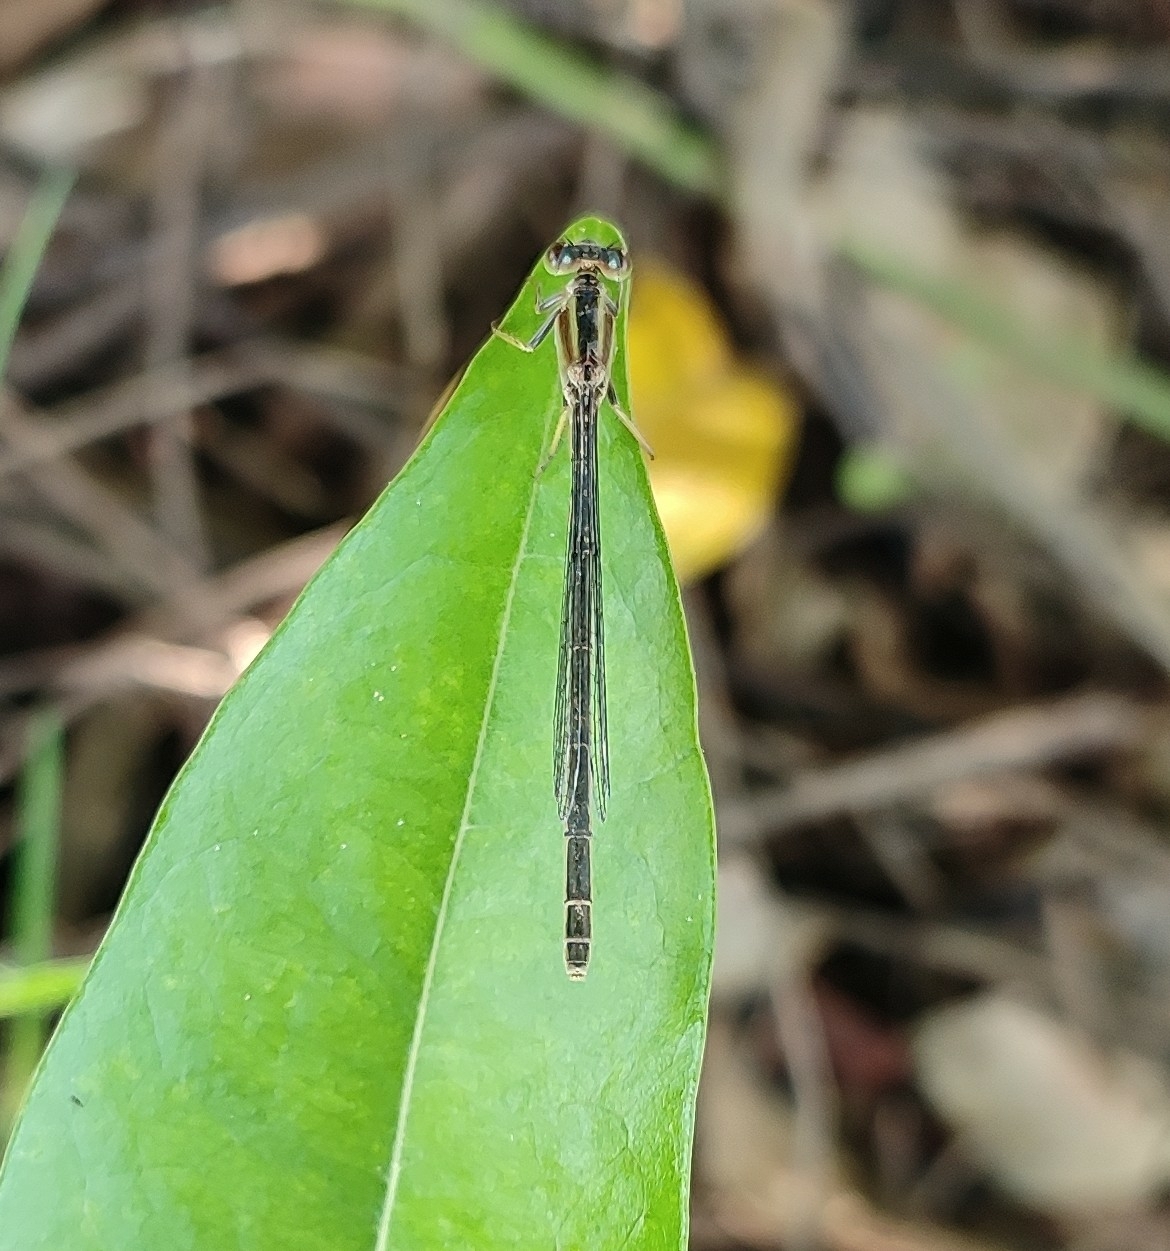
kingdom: Animalia
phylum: Arthropoda
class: Insecta
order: Odonata
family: Coenagrionidae
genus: Ischnura
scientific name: Ischnura senegalensis
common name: Tropical bluetail
